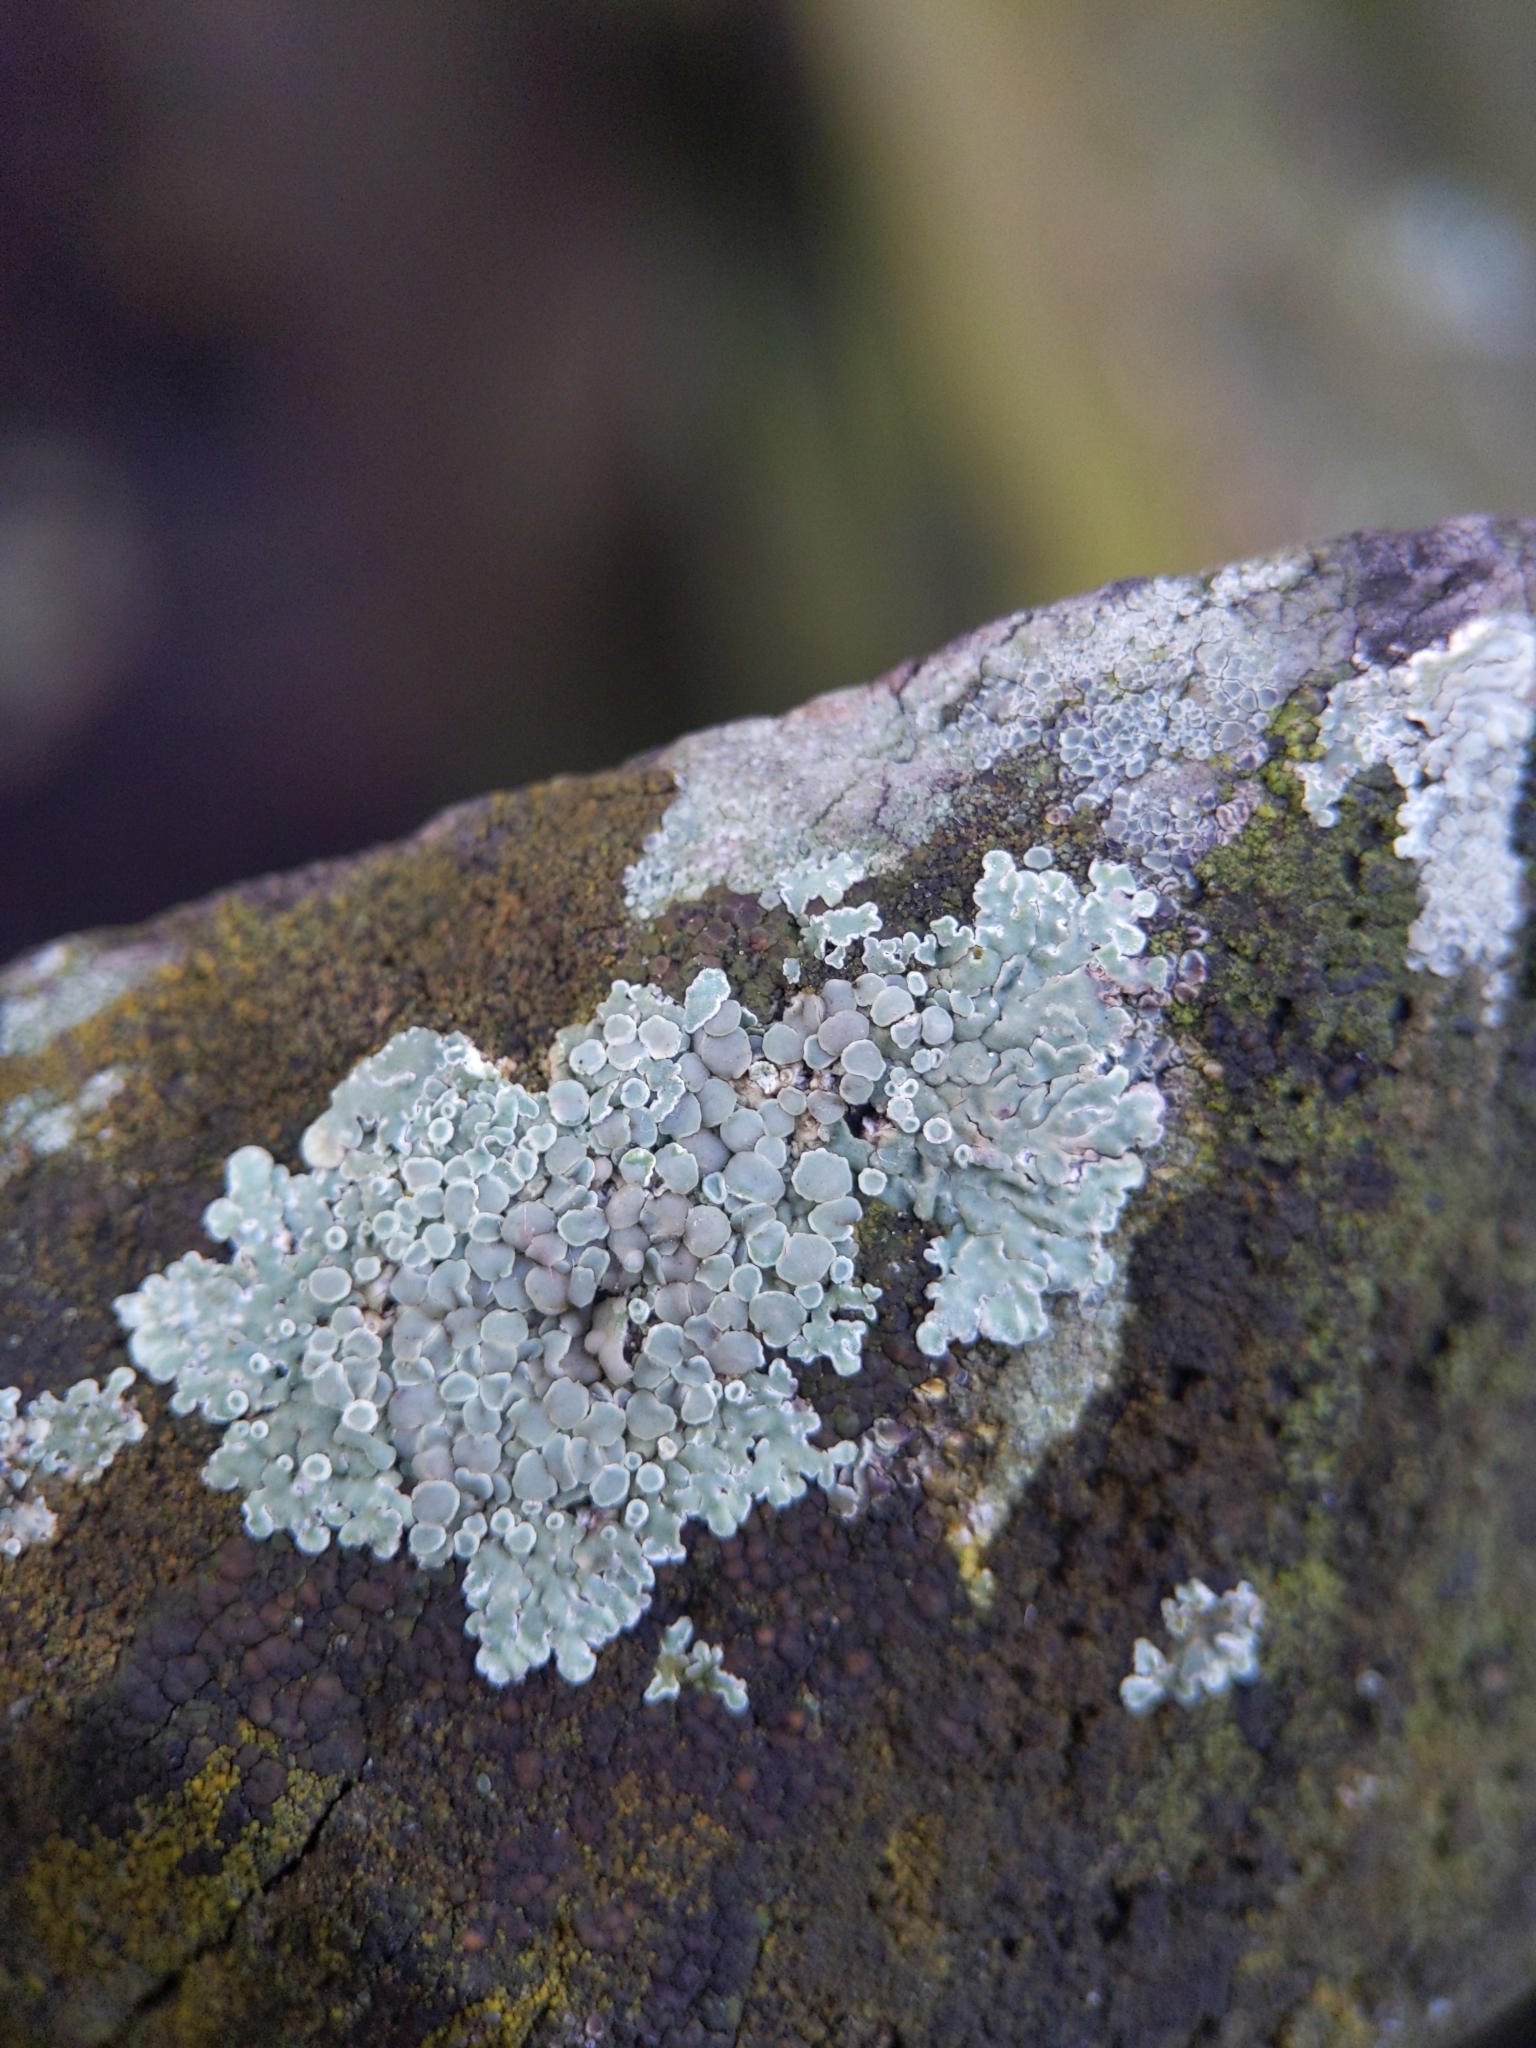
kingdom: Fungi
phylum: Ascomycota
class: Lecanoromycetes
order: Lecanorales
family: Lecanoraceae
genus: Protoparmeliopsis
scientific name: Protoparmeliopsis muralis
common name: Stonewall rim lichen
